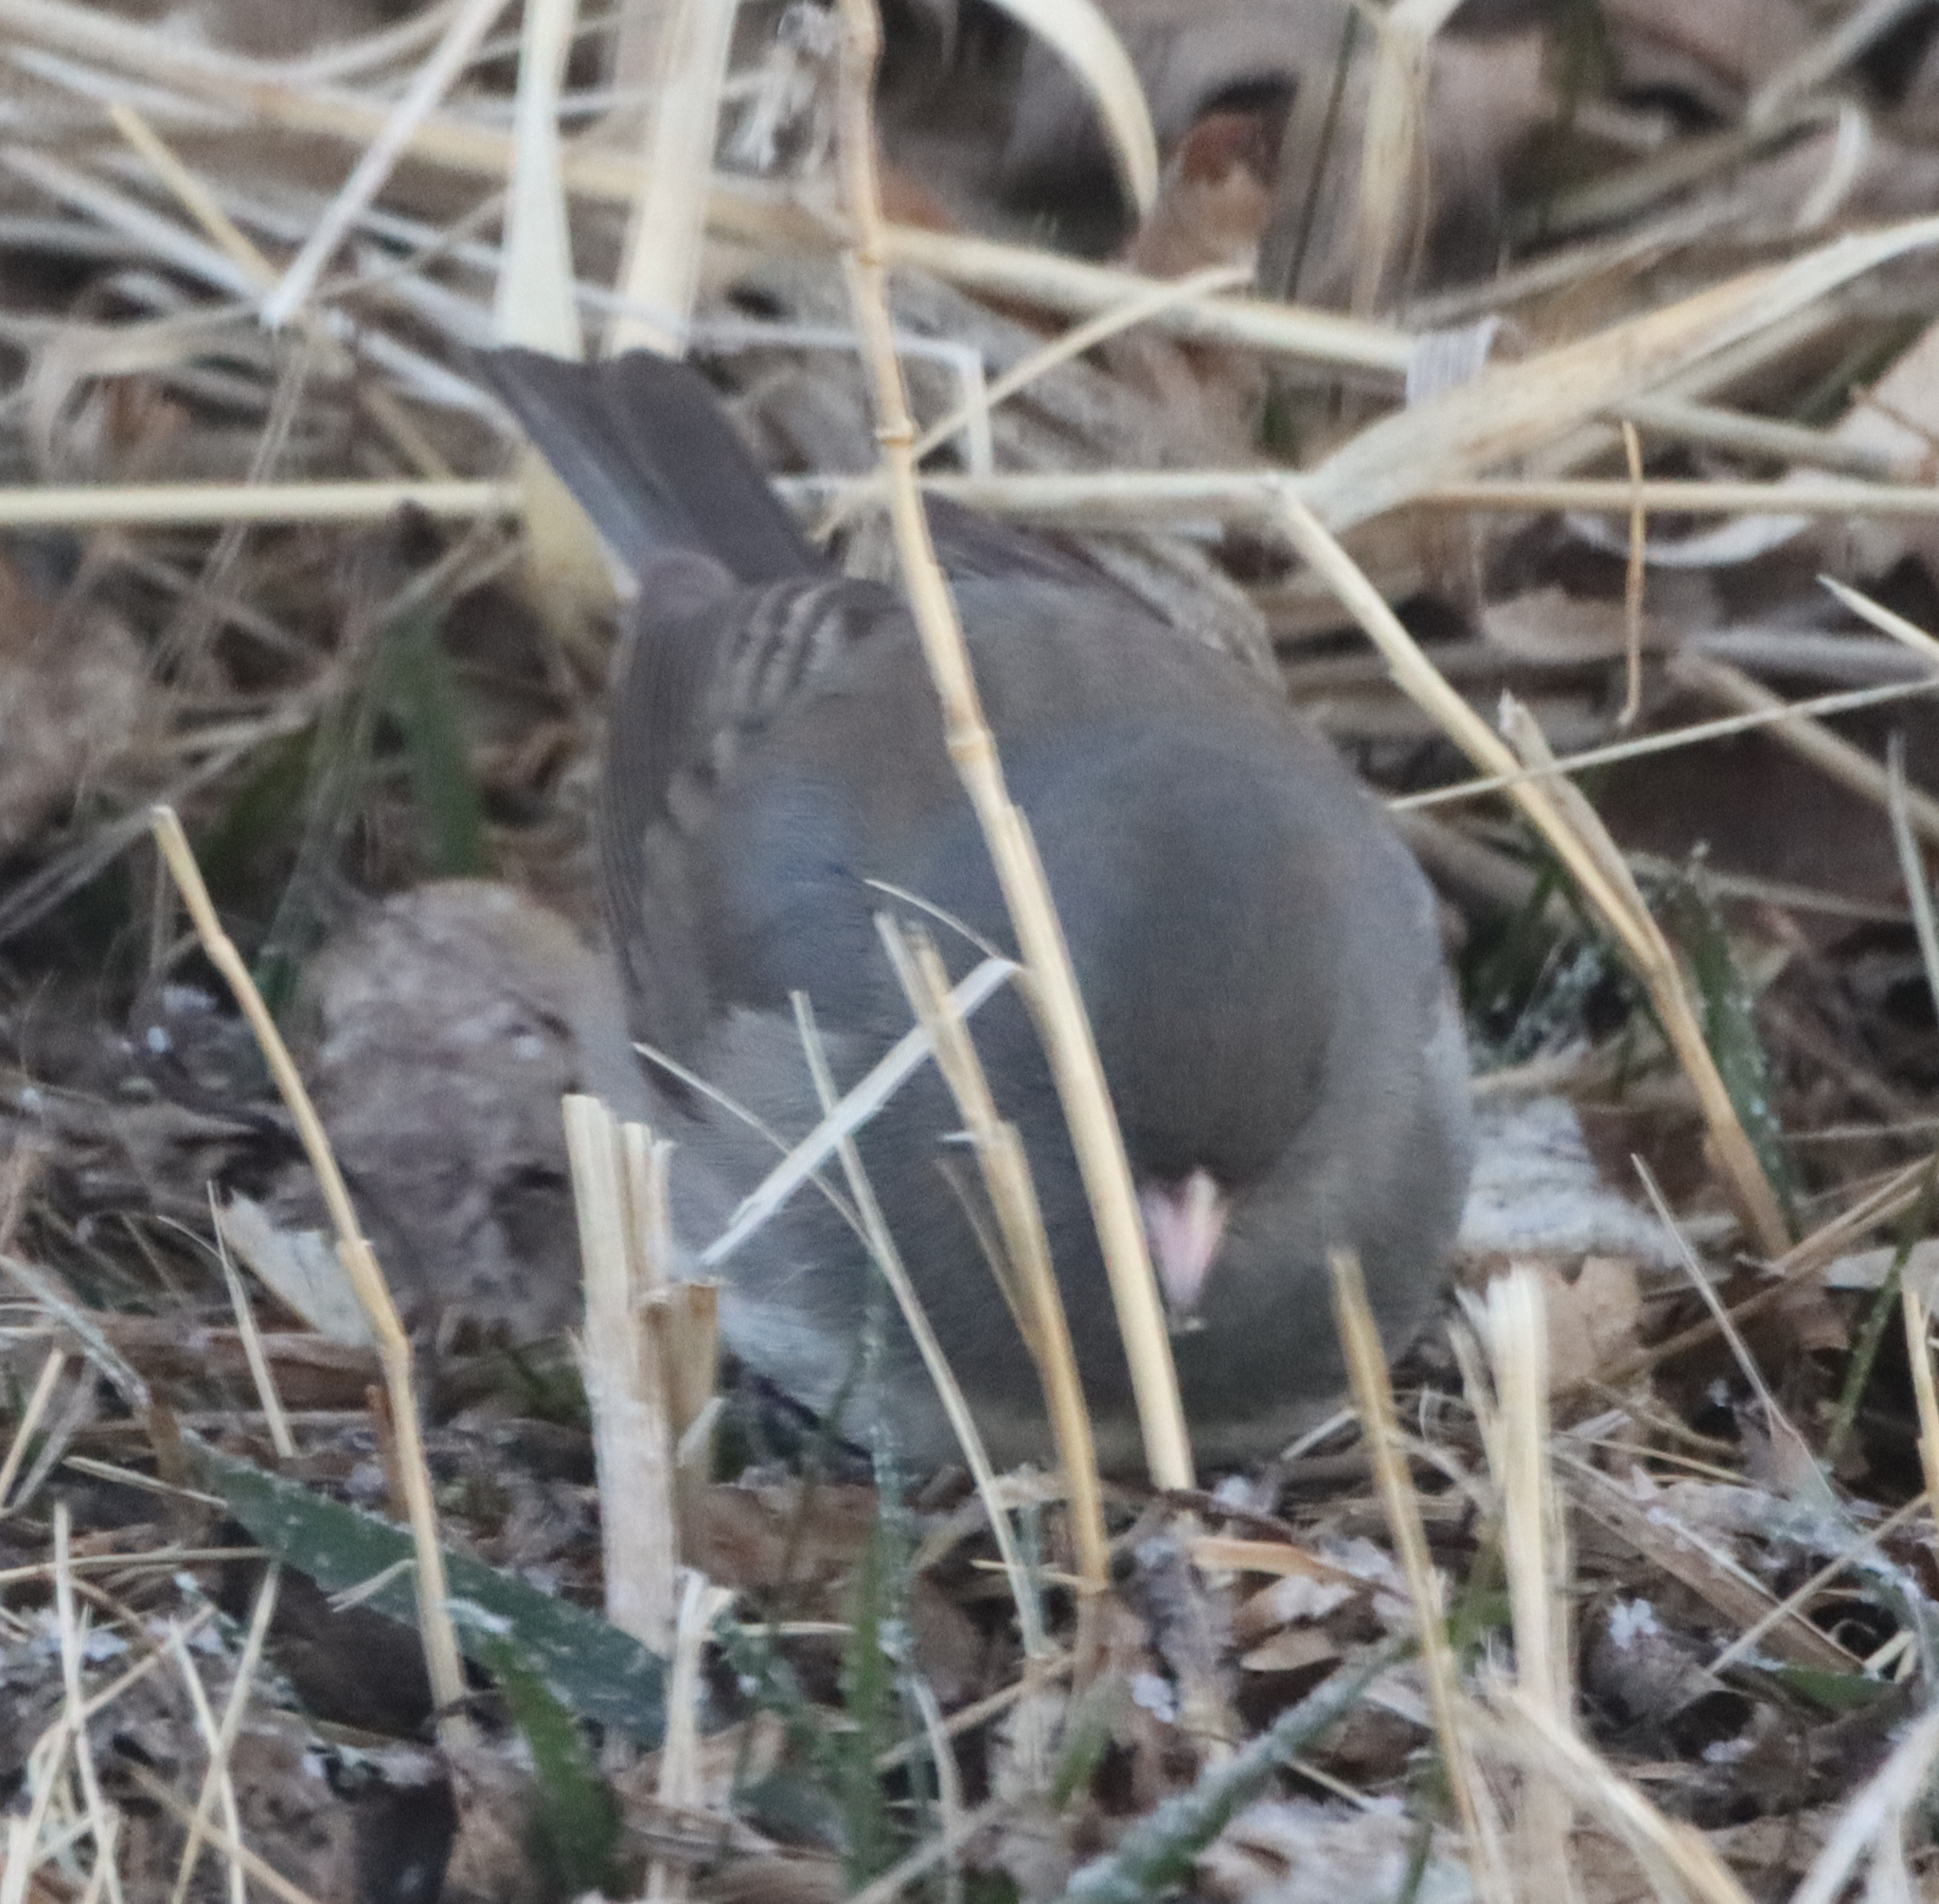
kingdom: Animalia
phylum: Chordata
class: Aves
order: Passeriformes
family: Passerellidae
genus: Junco
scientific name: Junco hyemalis
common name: Dark-eyed junco
